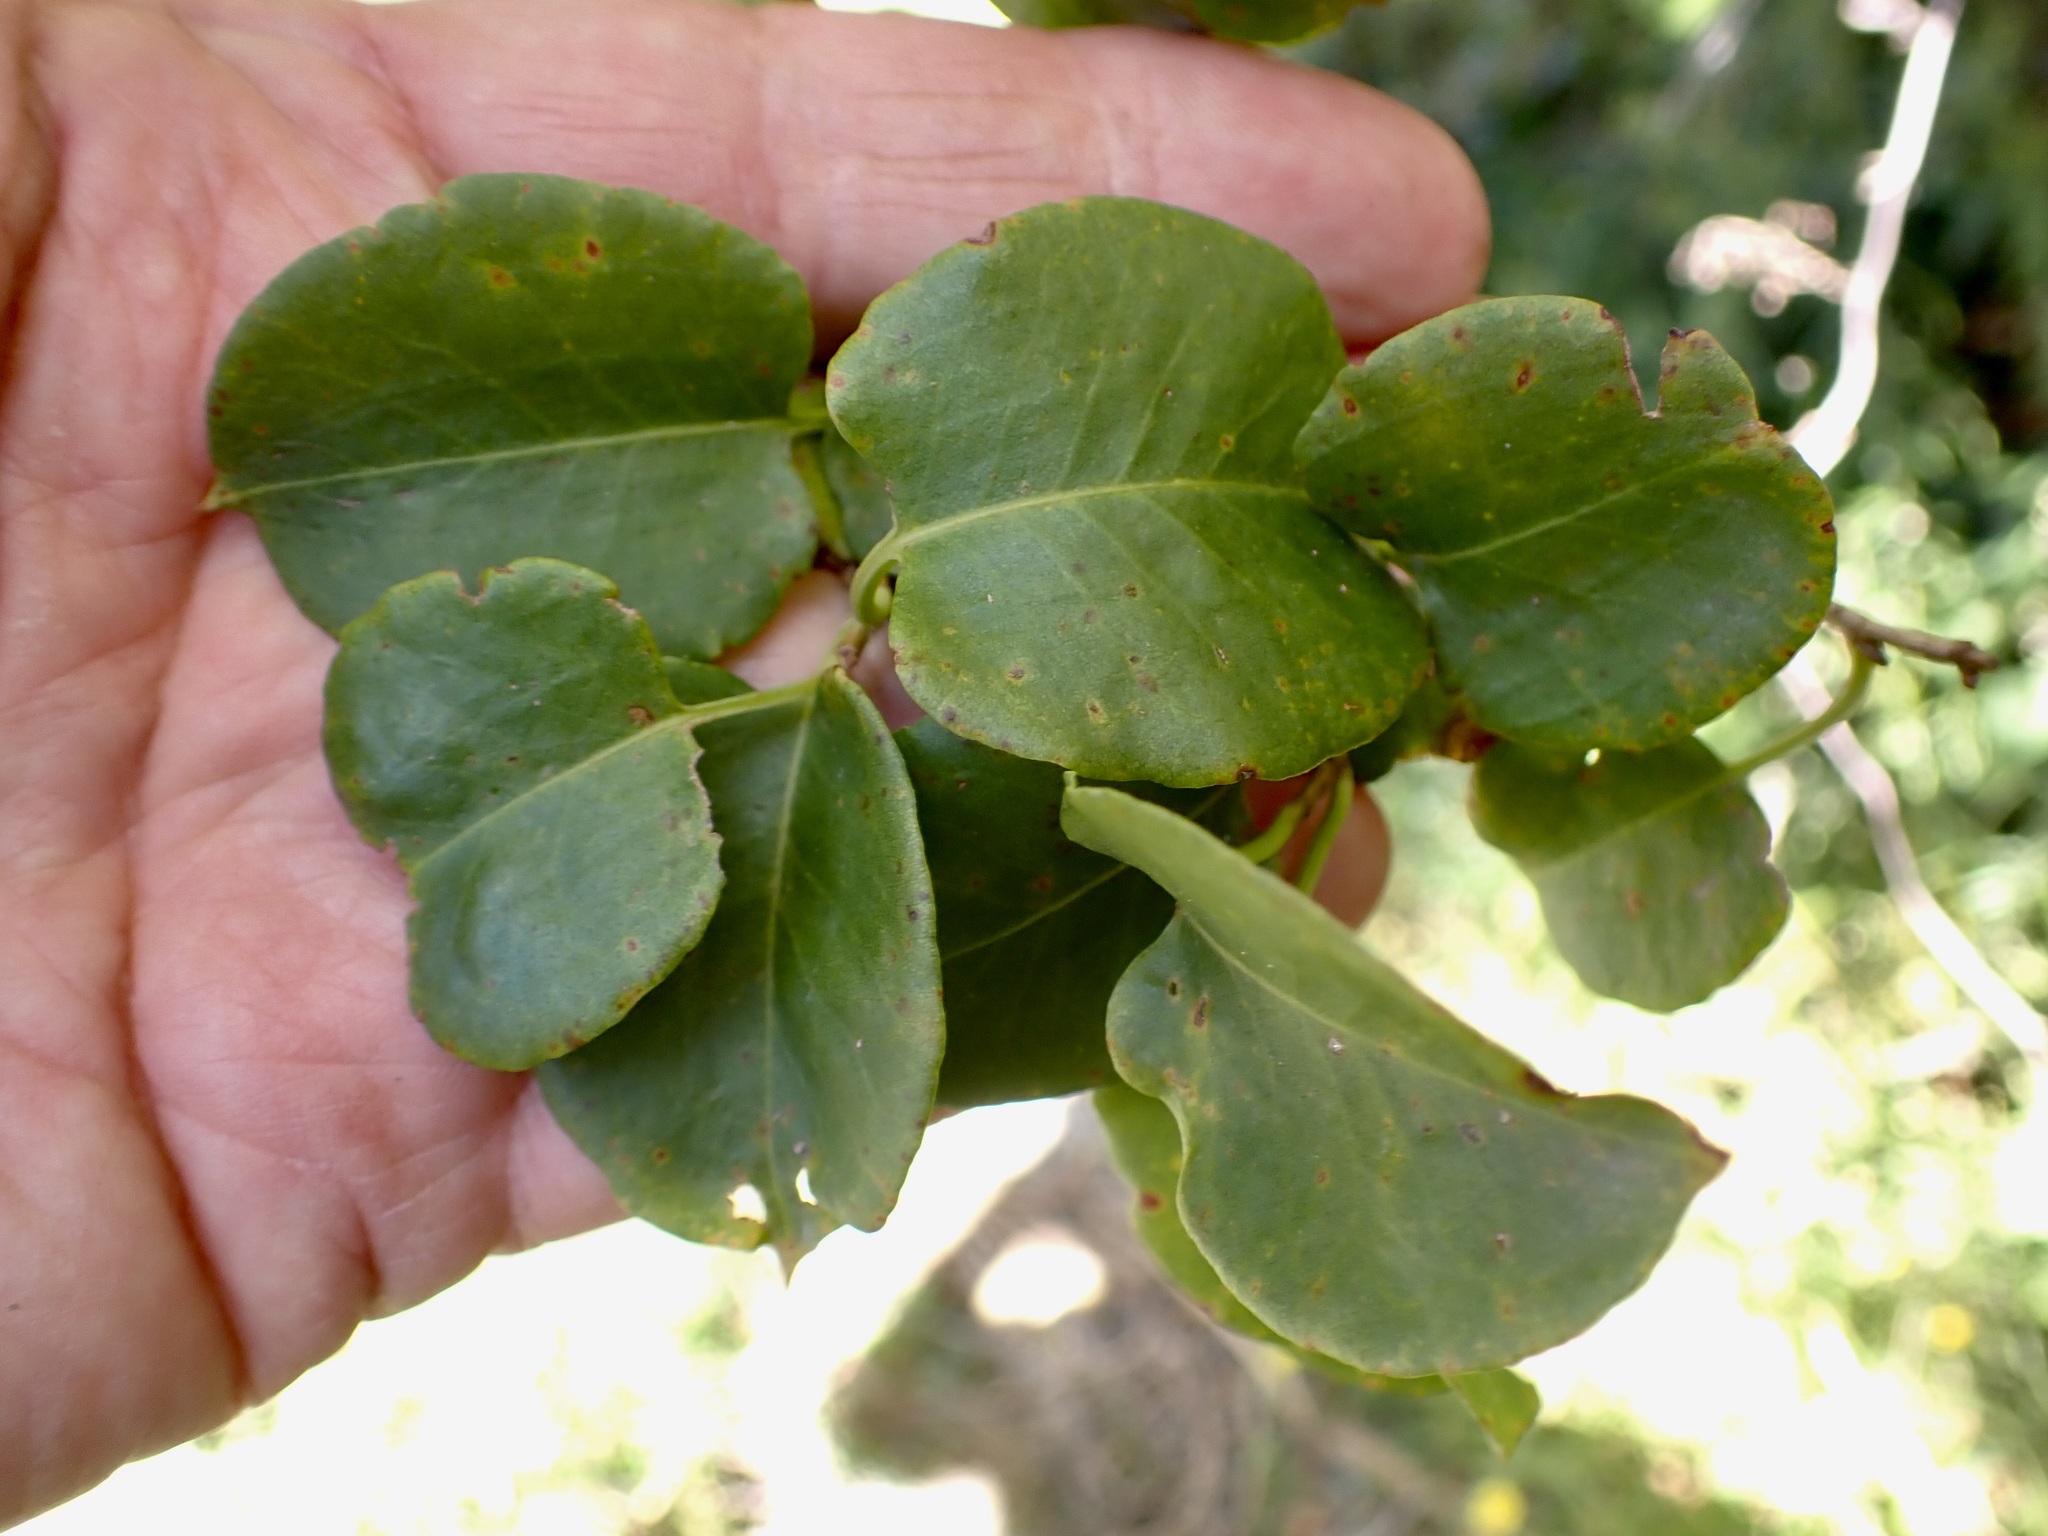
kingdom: Plantae
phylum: Tracheophyta
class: Magnoliopsida
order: Caryophyllales
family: Polygonaceae
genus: Muehlenbeckia
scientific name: Muehlenbeckia australis
